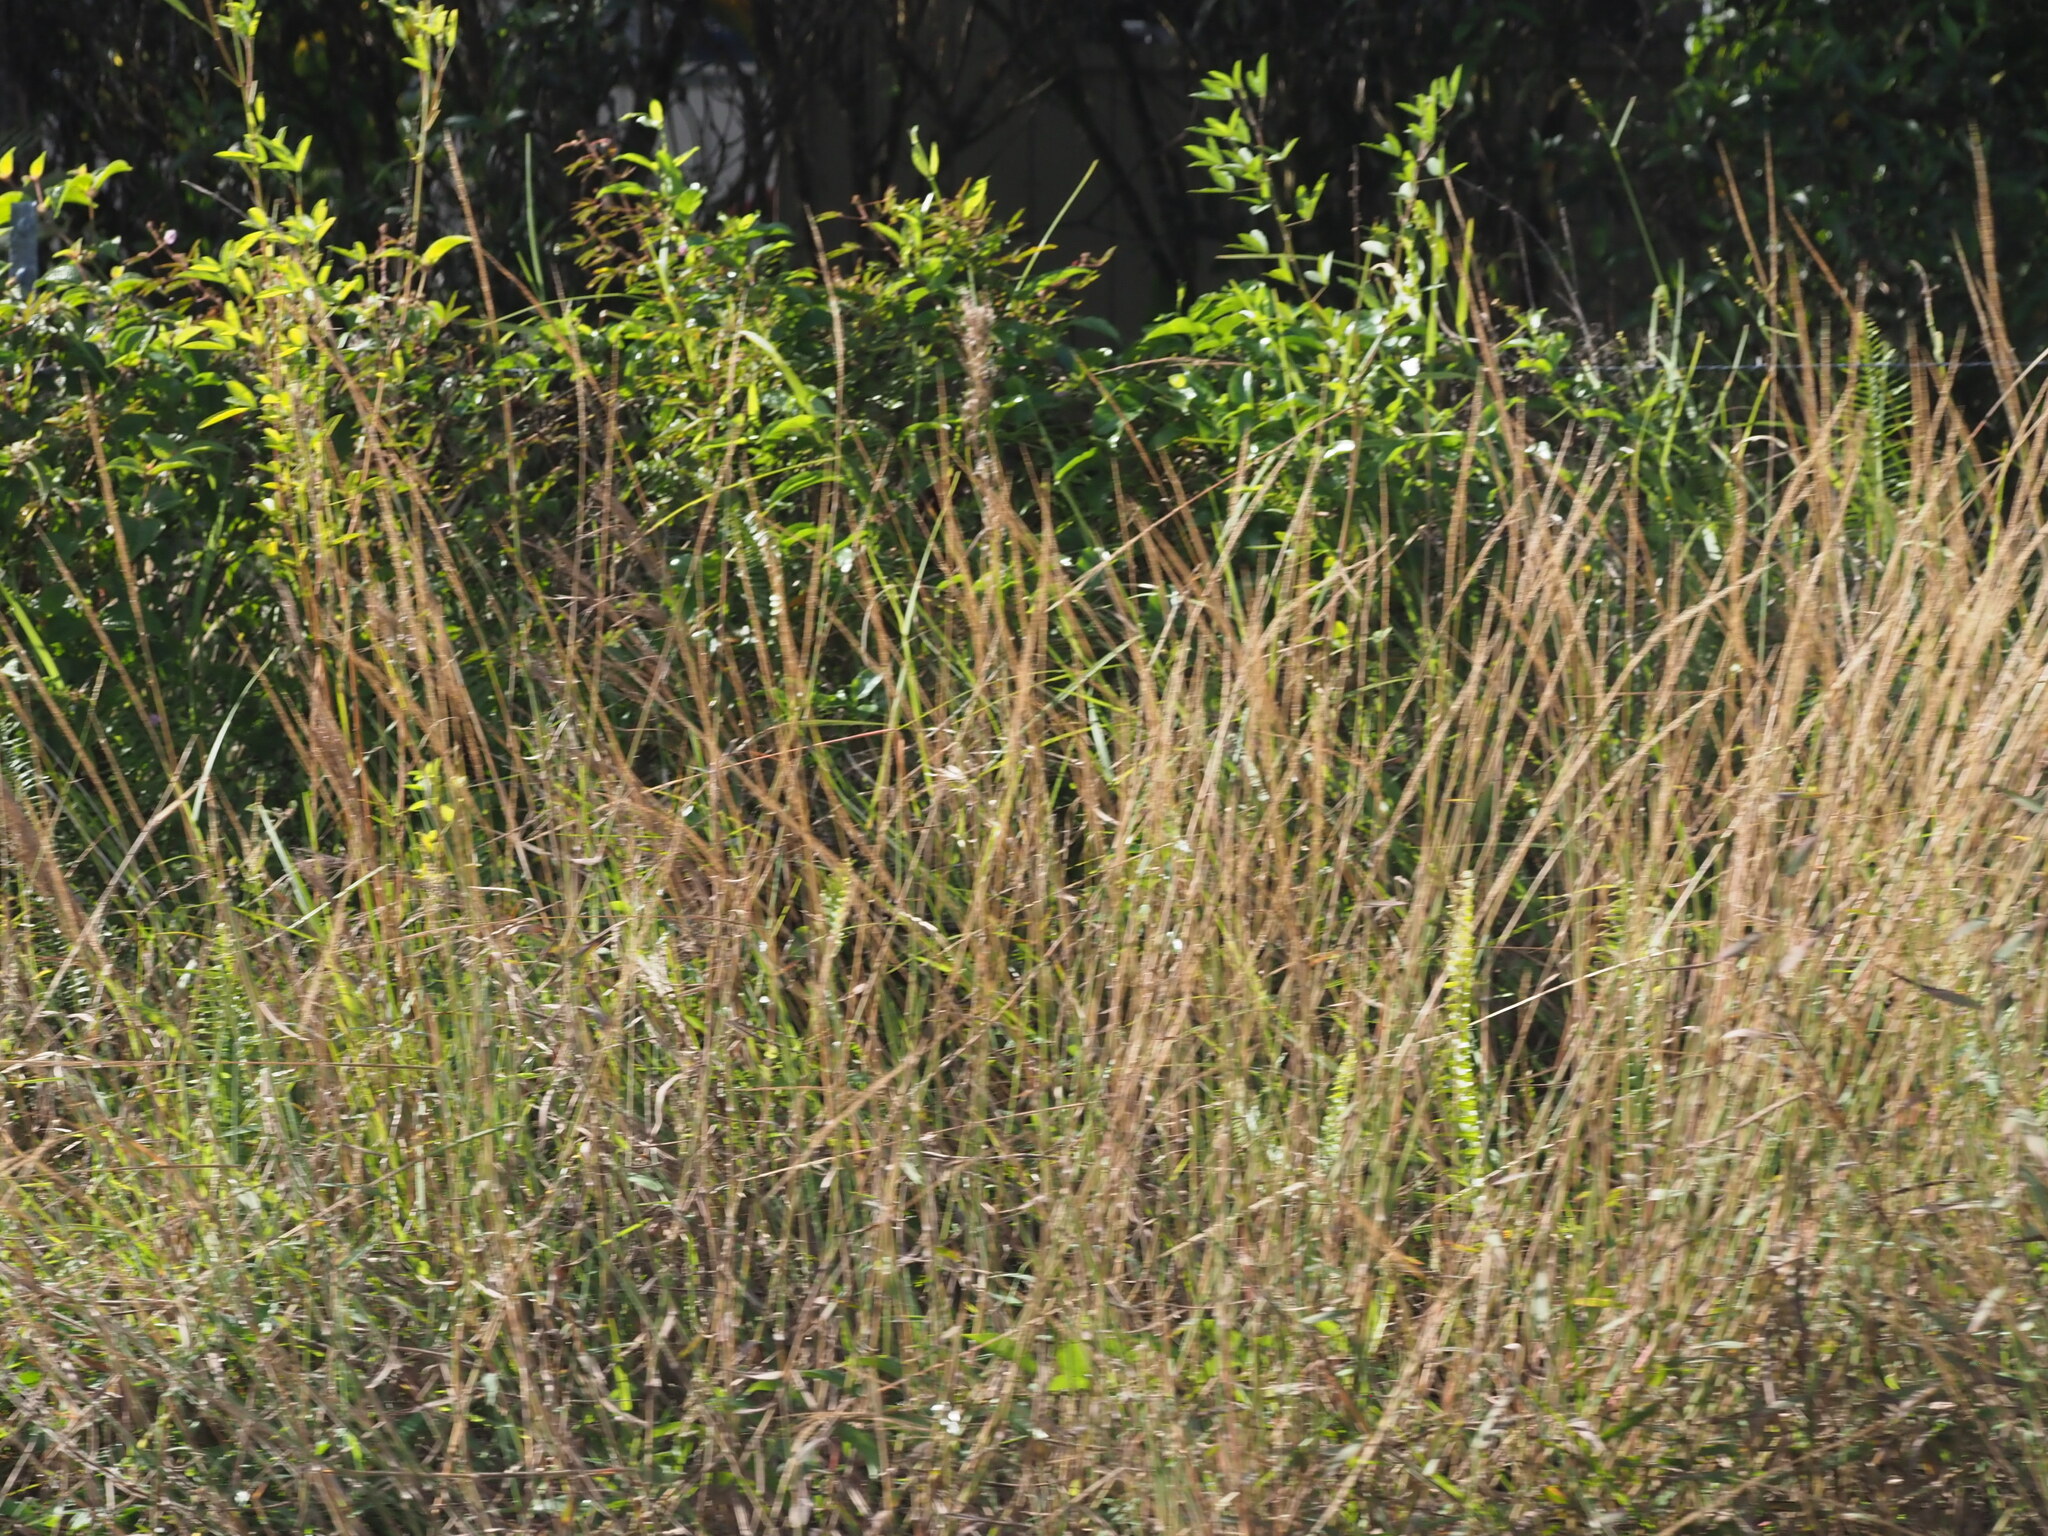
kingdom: Plantae
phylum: Tracheophyta
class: Liliopsida
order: Poales
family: Poaceae
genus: Melinis
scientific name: Melinis minutiflora
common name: Molassesgrass
